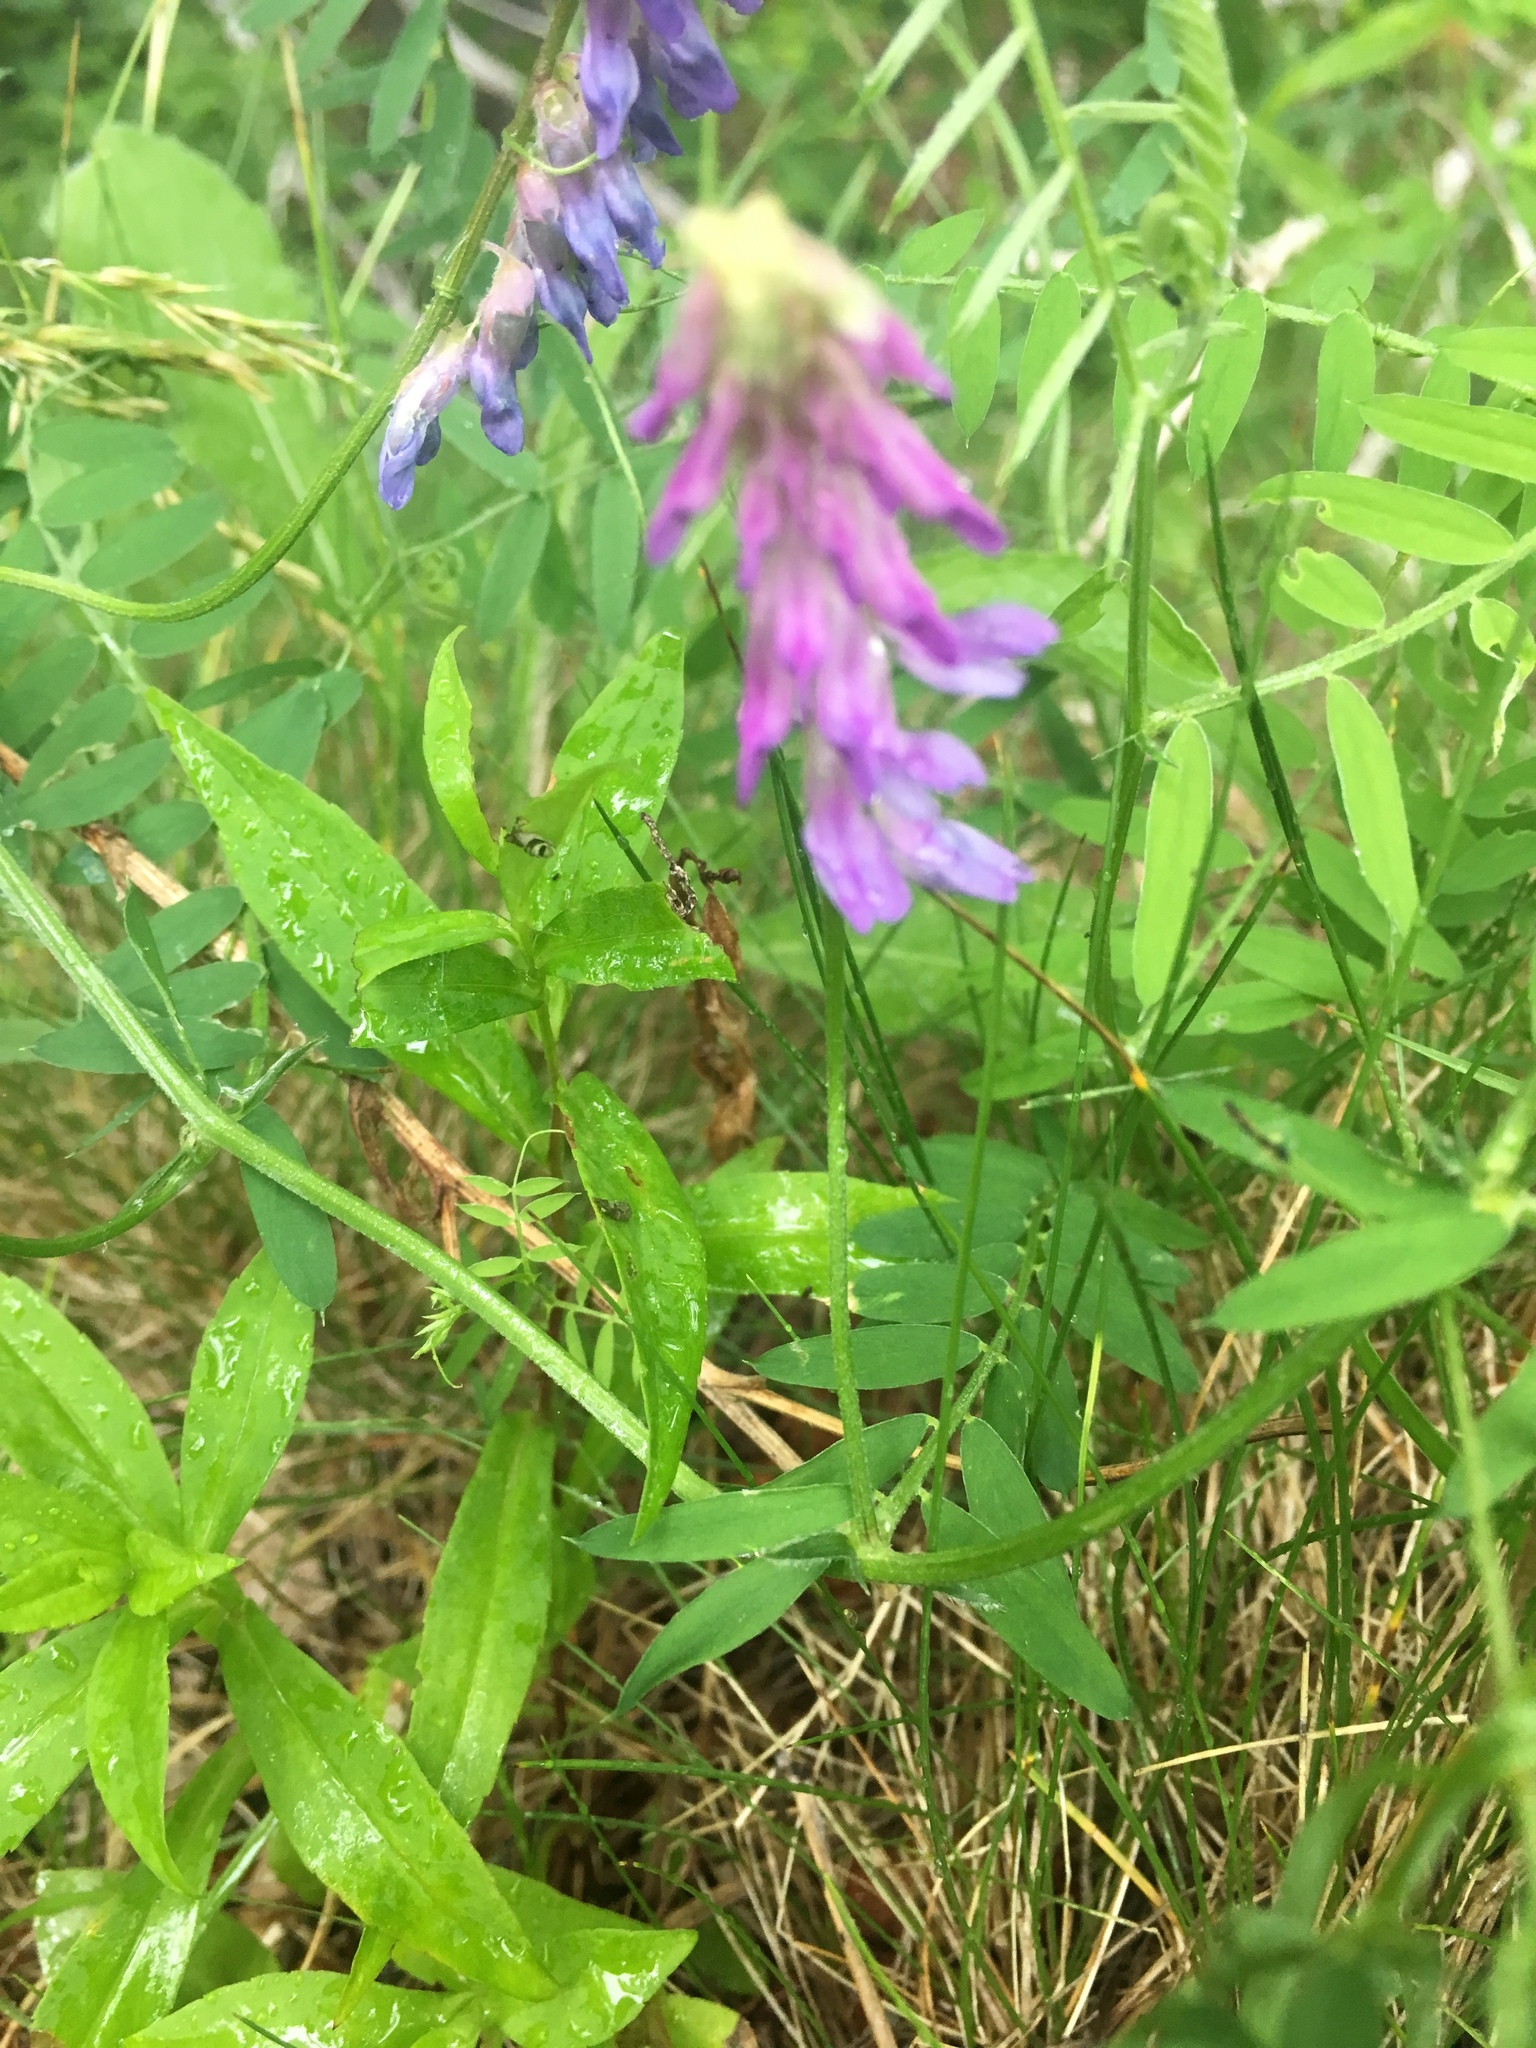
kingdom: Plantae
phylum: Tracheophyta
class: Magnoliopsida
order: Fabales
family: Fabaceae
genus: Vicia
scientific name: Vicia cracca
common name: Bird vetch
